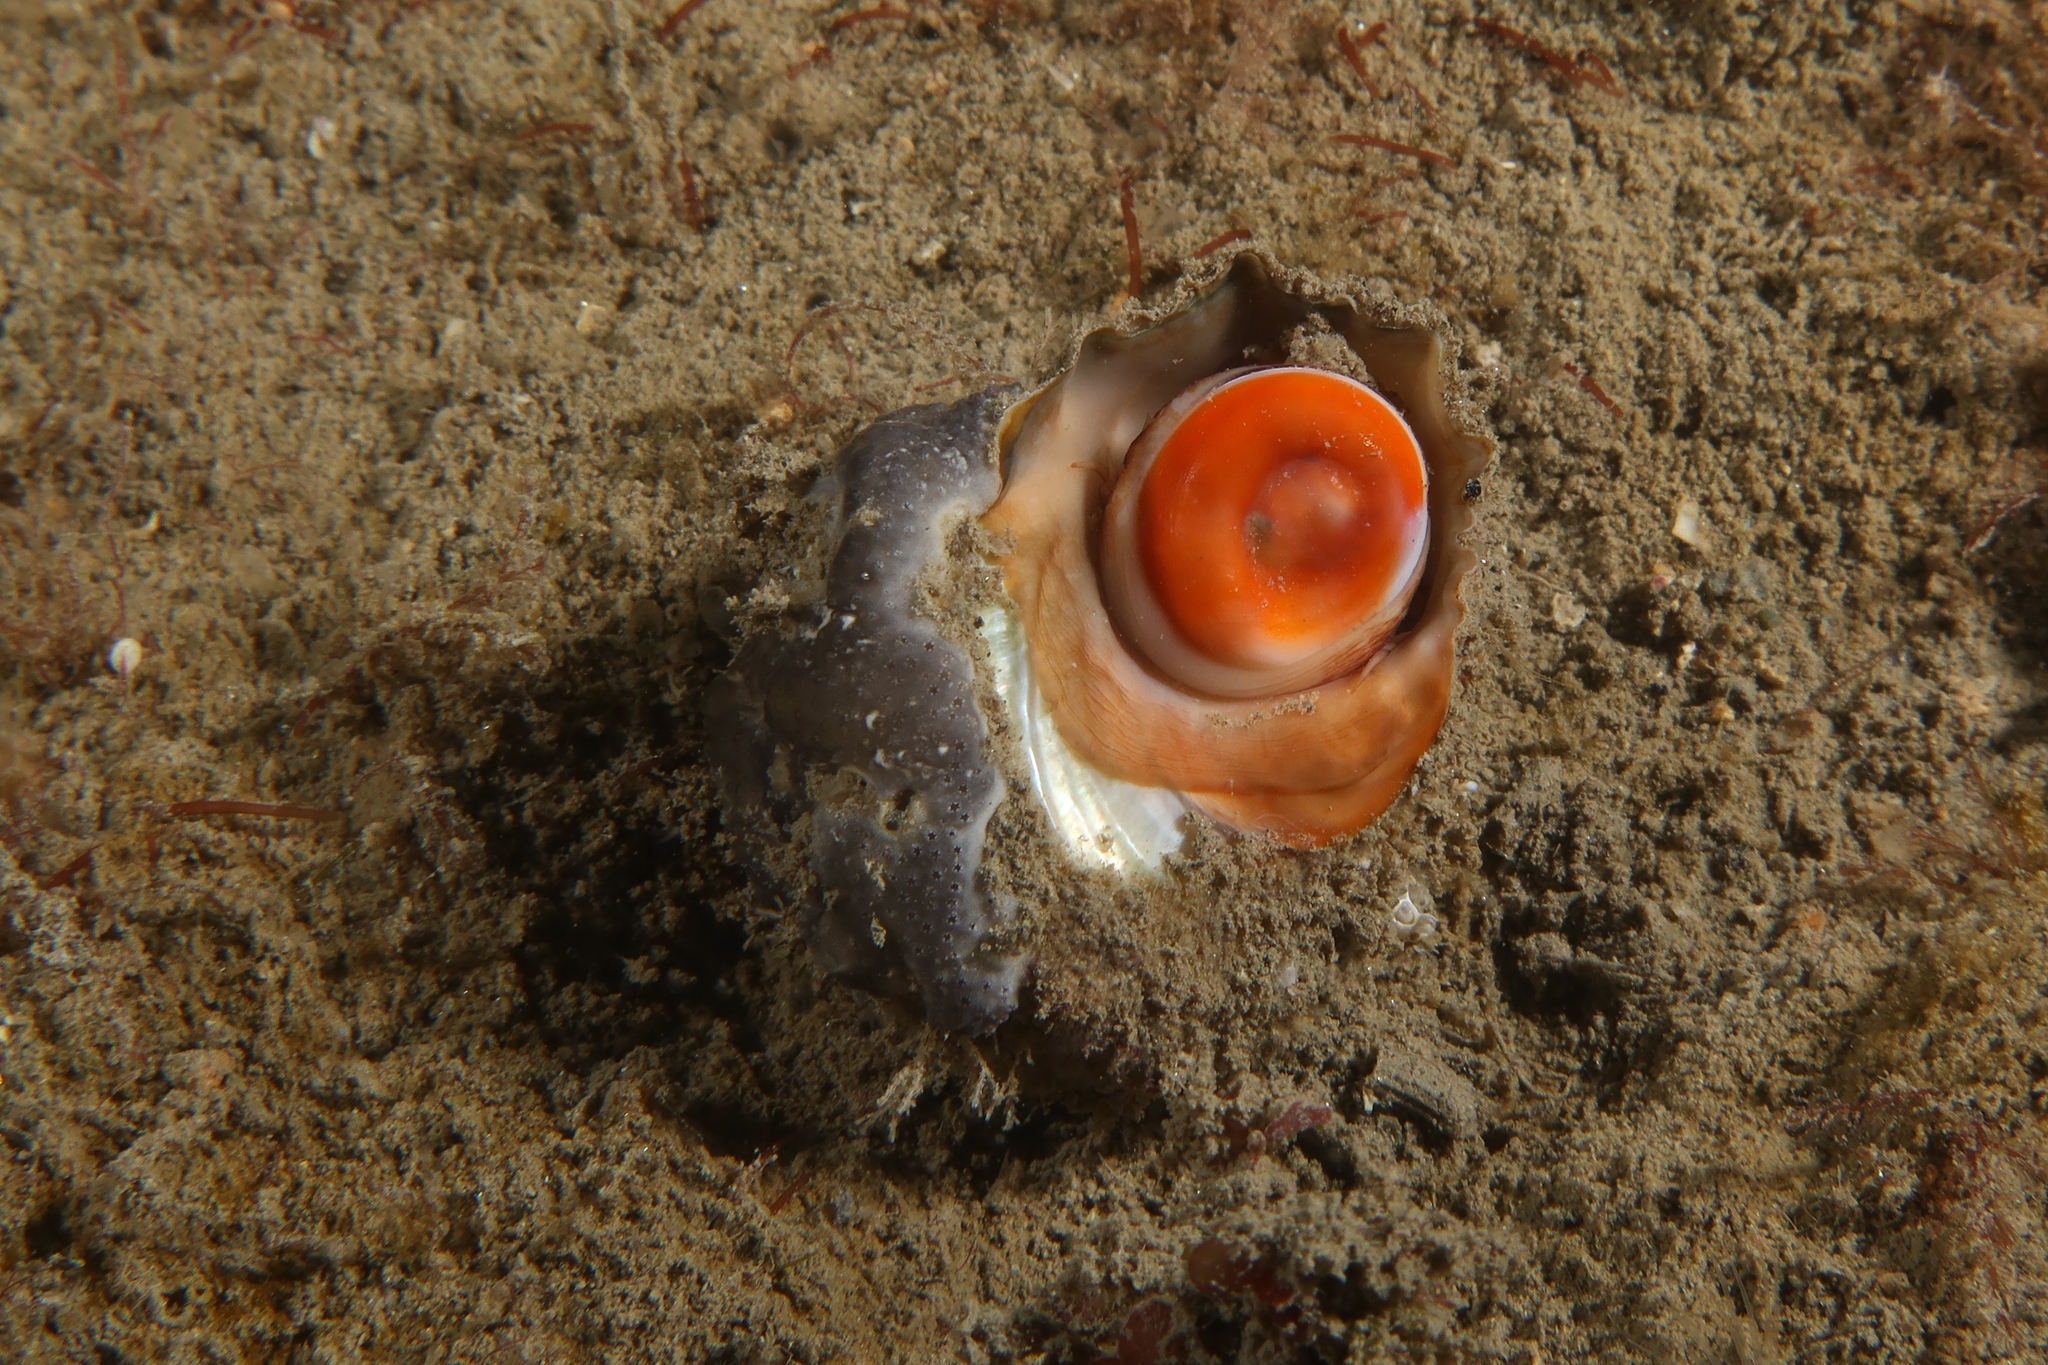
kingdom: Animalia
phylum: Mollusca
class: Gastropoda
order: Trochida
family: Turbinidae
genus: Bolma
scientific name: Bolma rugosa
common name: Rough star shell
